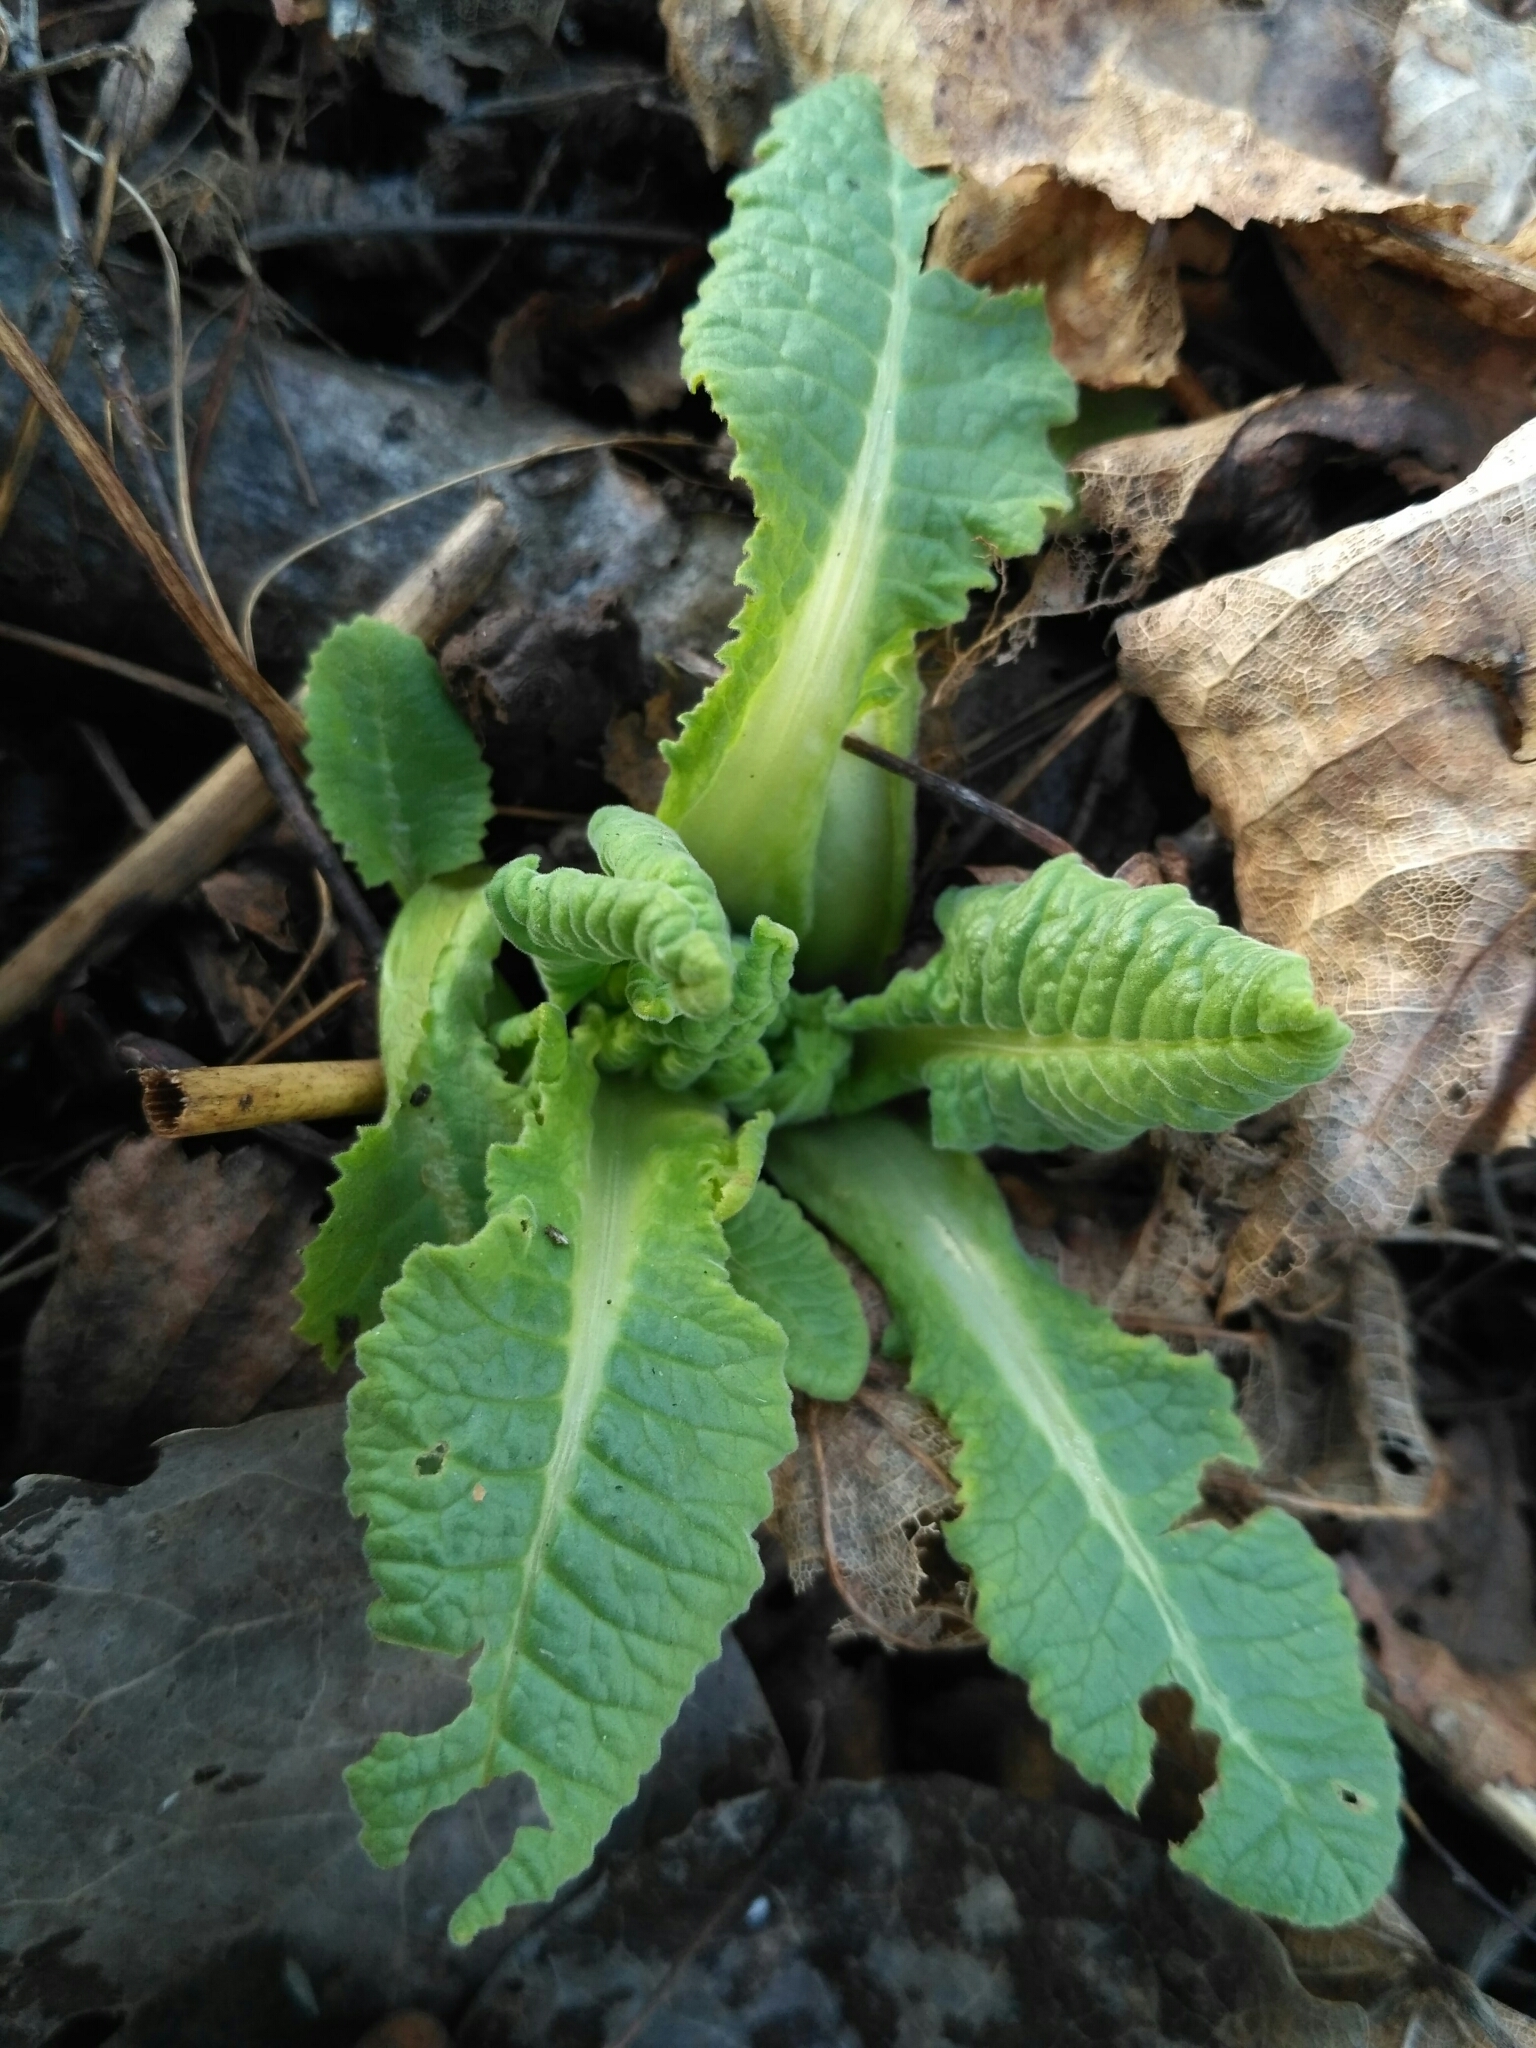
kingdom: Plantae
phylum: Tracheophyta
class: Magnoliopsida
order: Ericales
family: Primulaceae
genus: Primula
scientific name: Primula veris
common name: Cowslip
